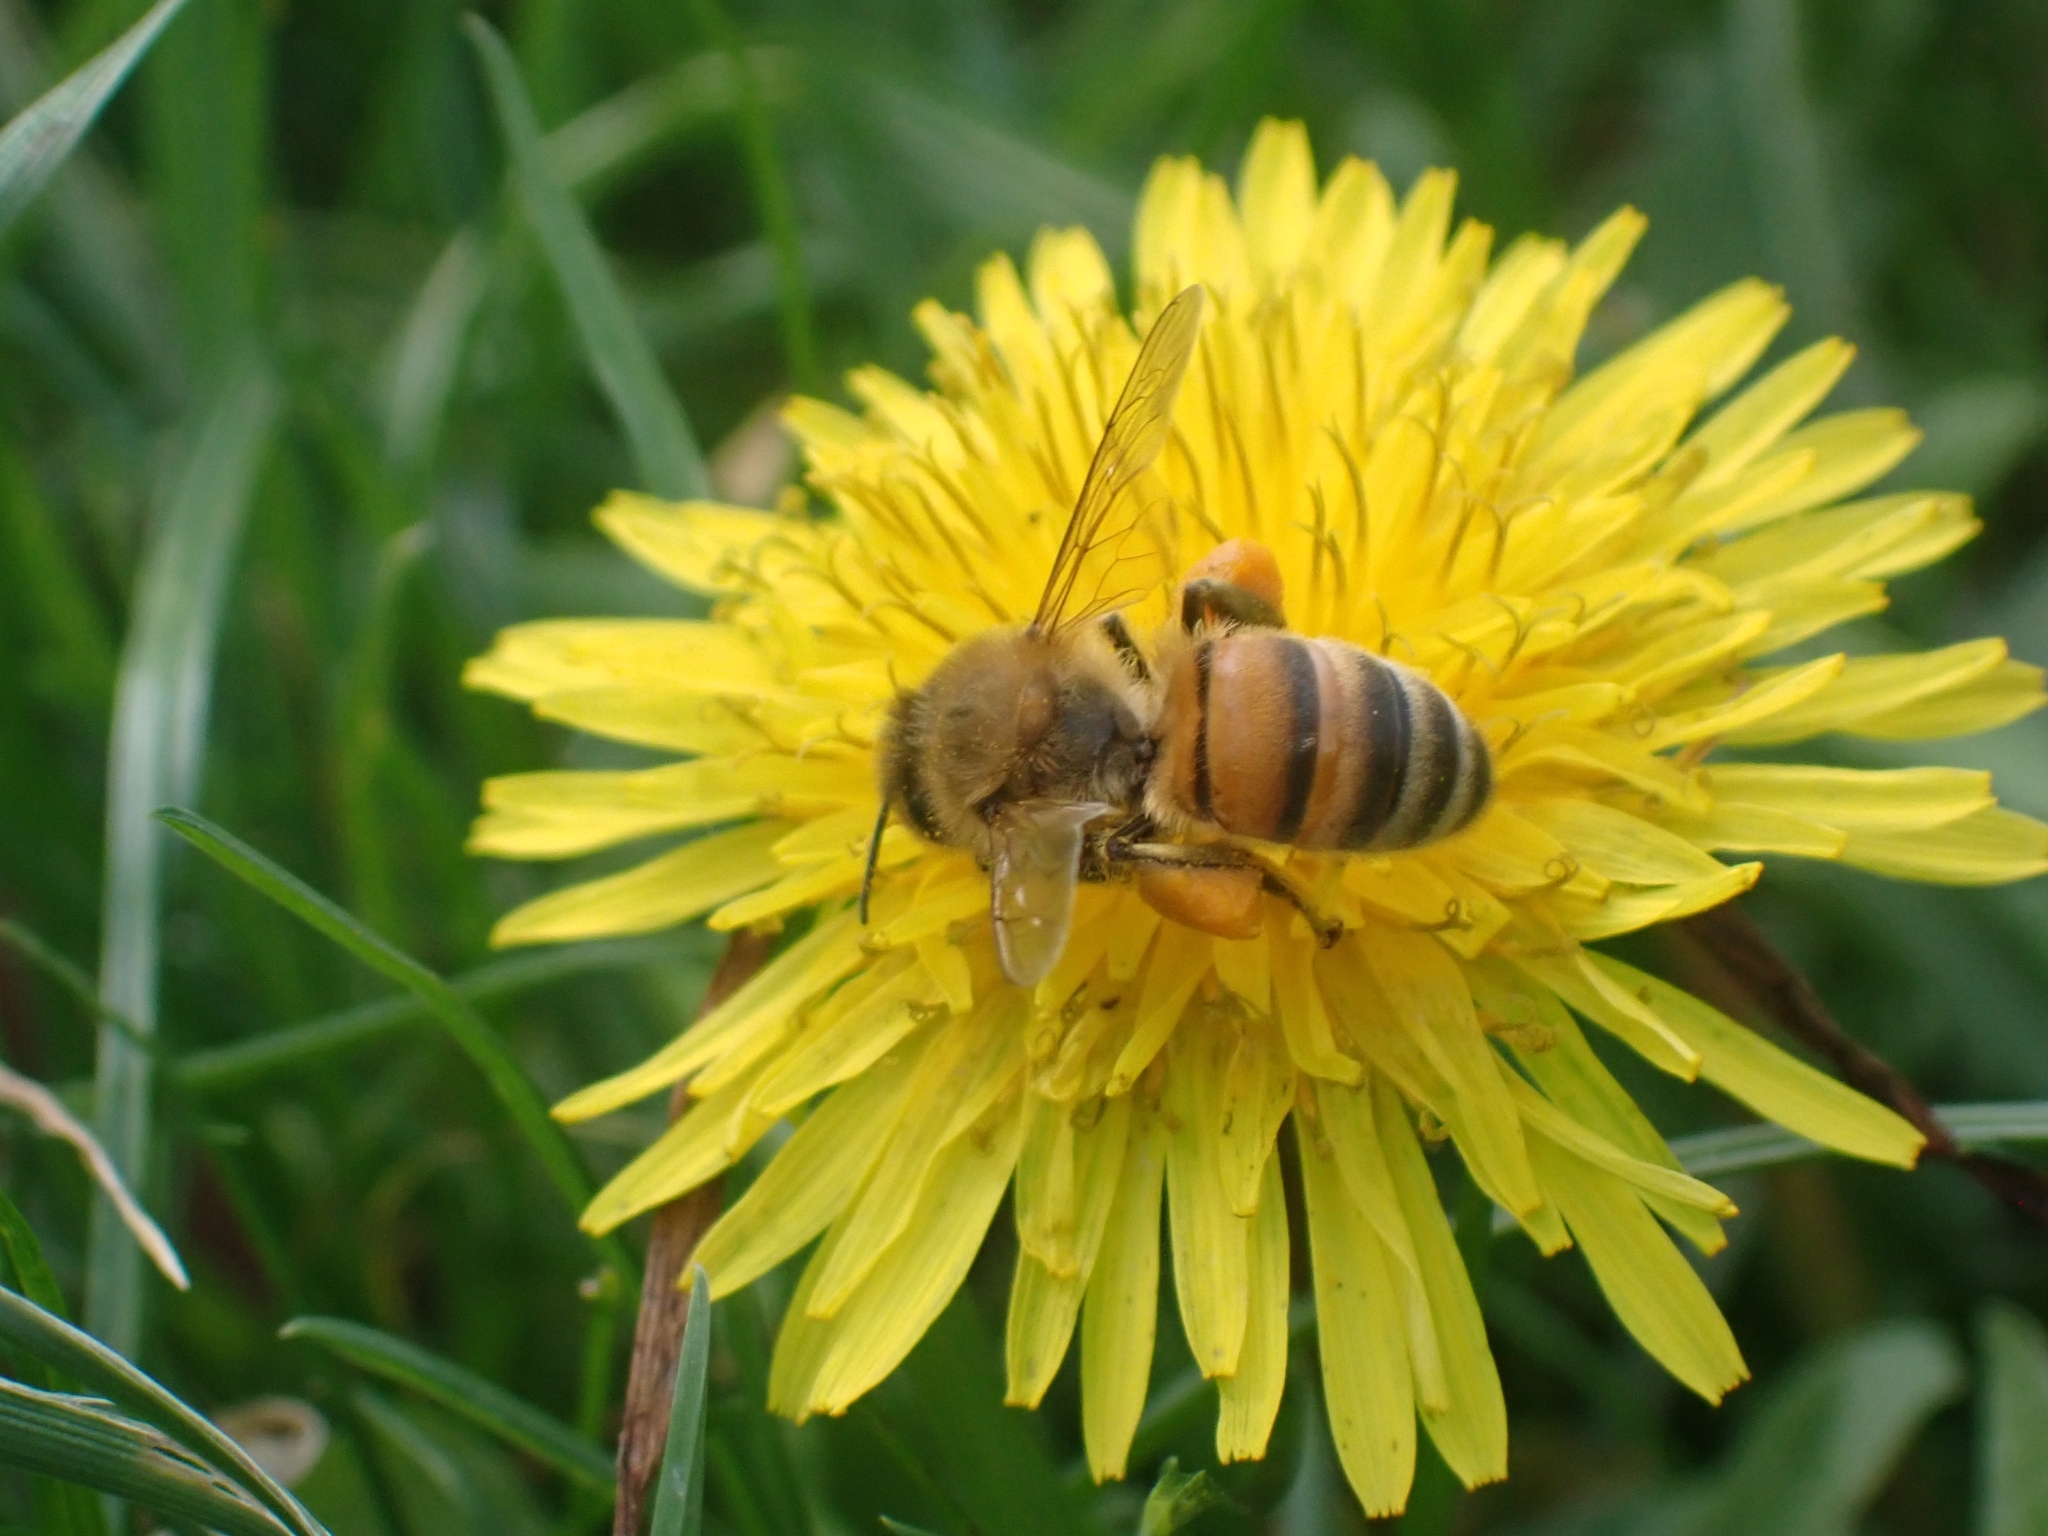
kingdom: Animalia
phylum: Arthropoda
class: Insecta
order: Hymenoptera
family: Apidae
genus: Apis
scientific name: Apis mellifera
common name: Honey bee
